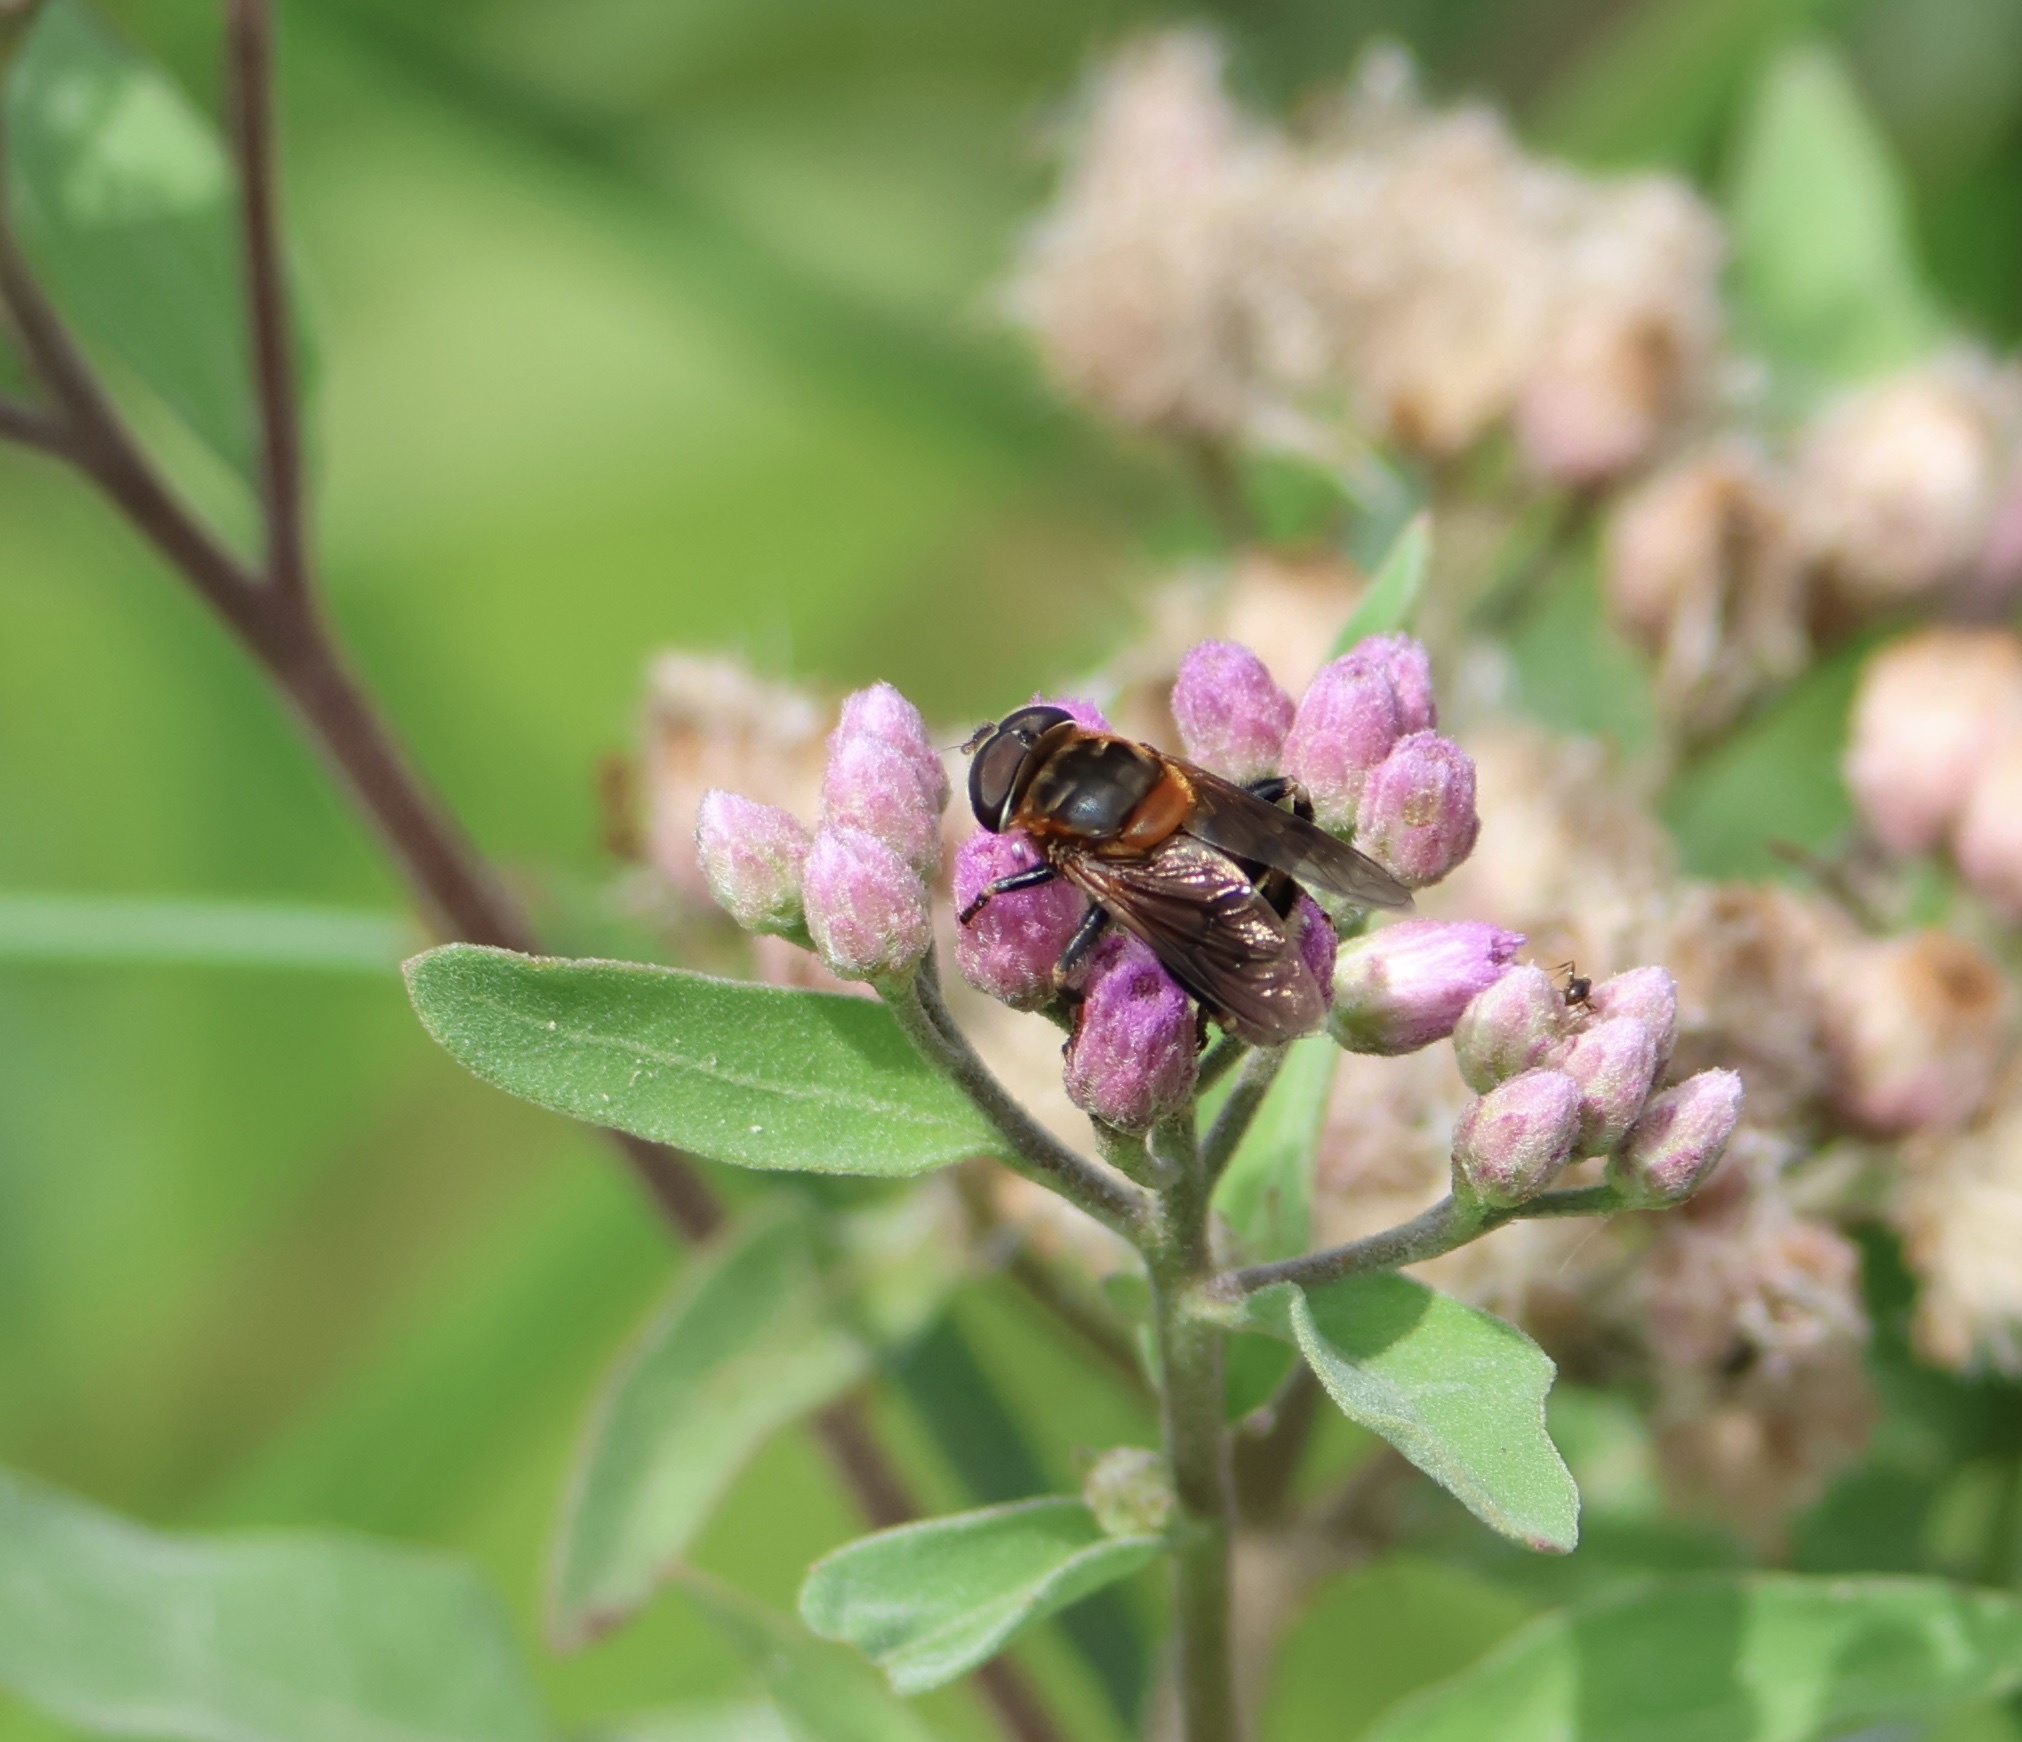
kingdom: Animalia
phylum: Arthropoda
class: Insecta
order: Diptera
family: Syrphidae
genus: Palpada
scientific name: Palpada mexicana
